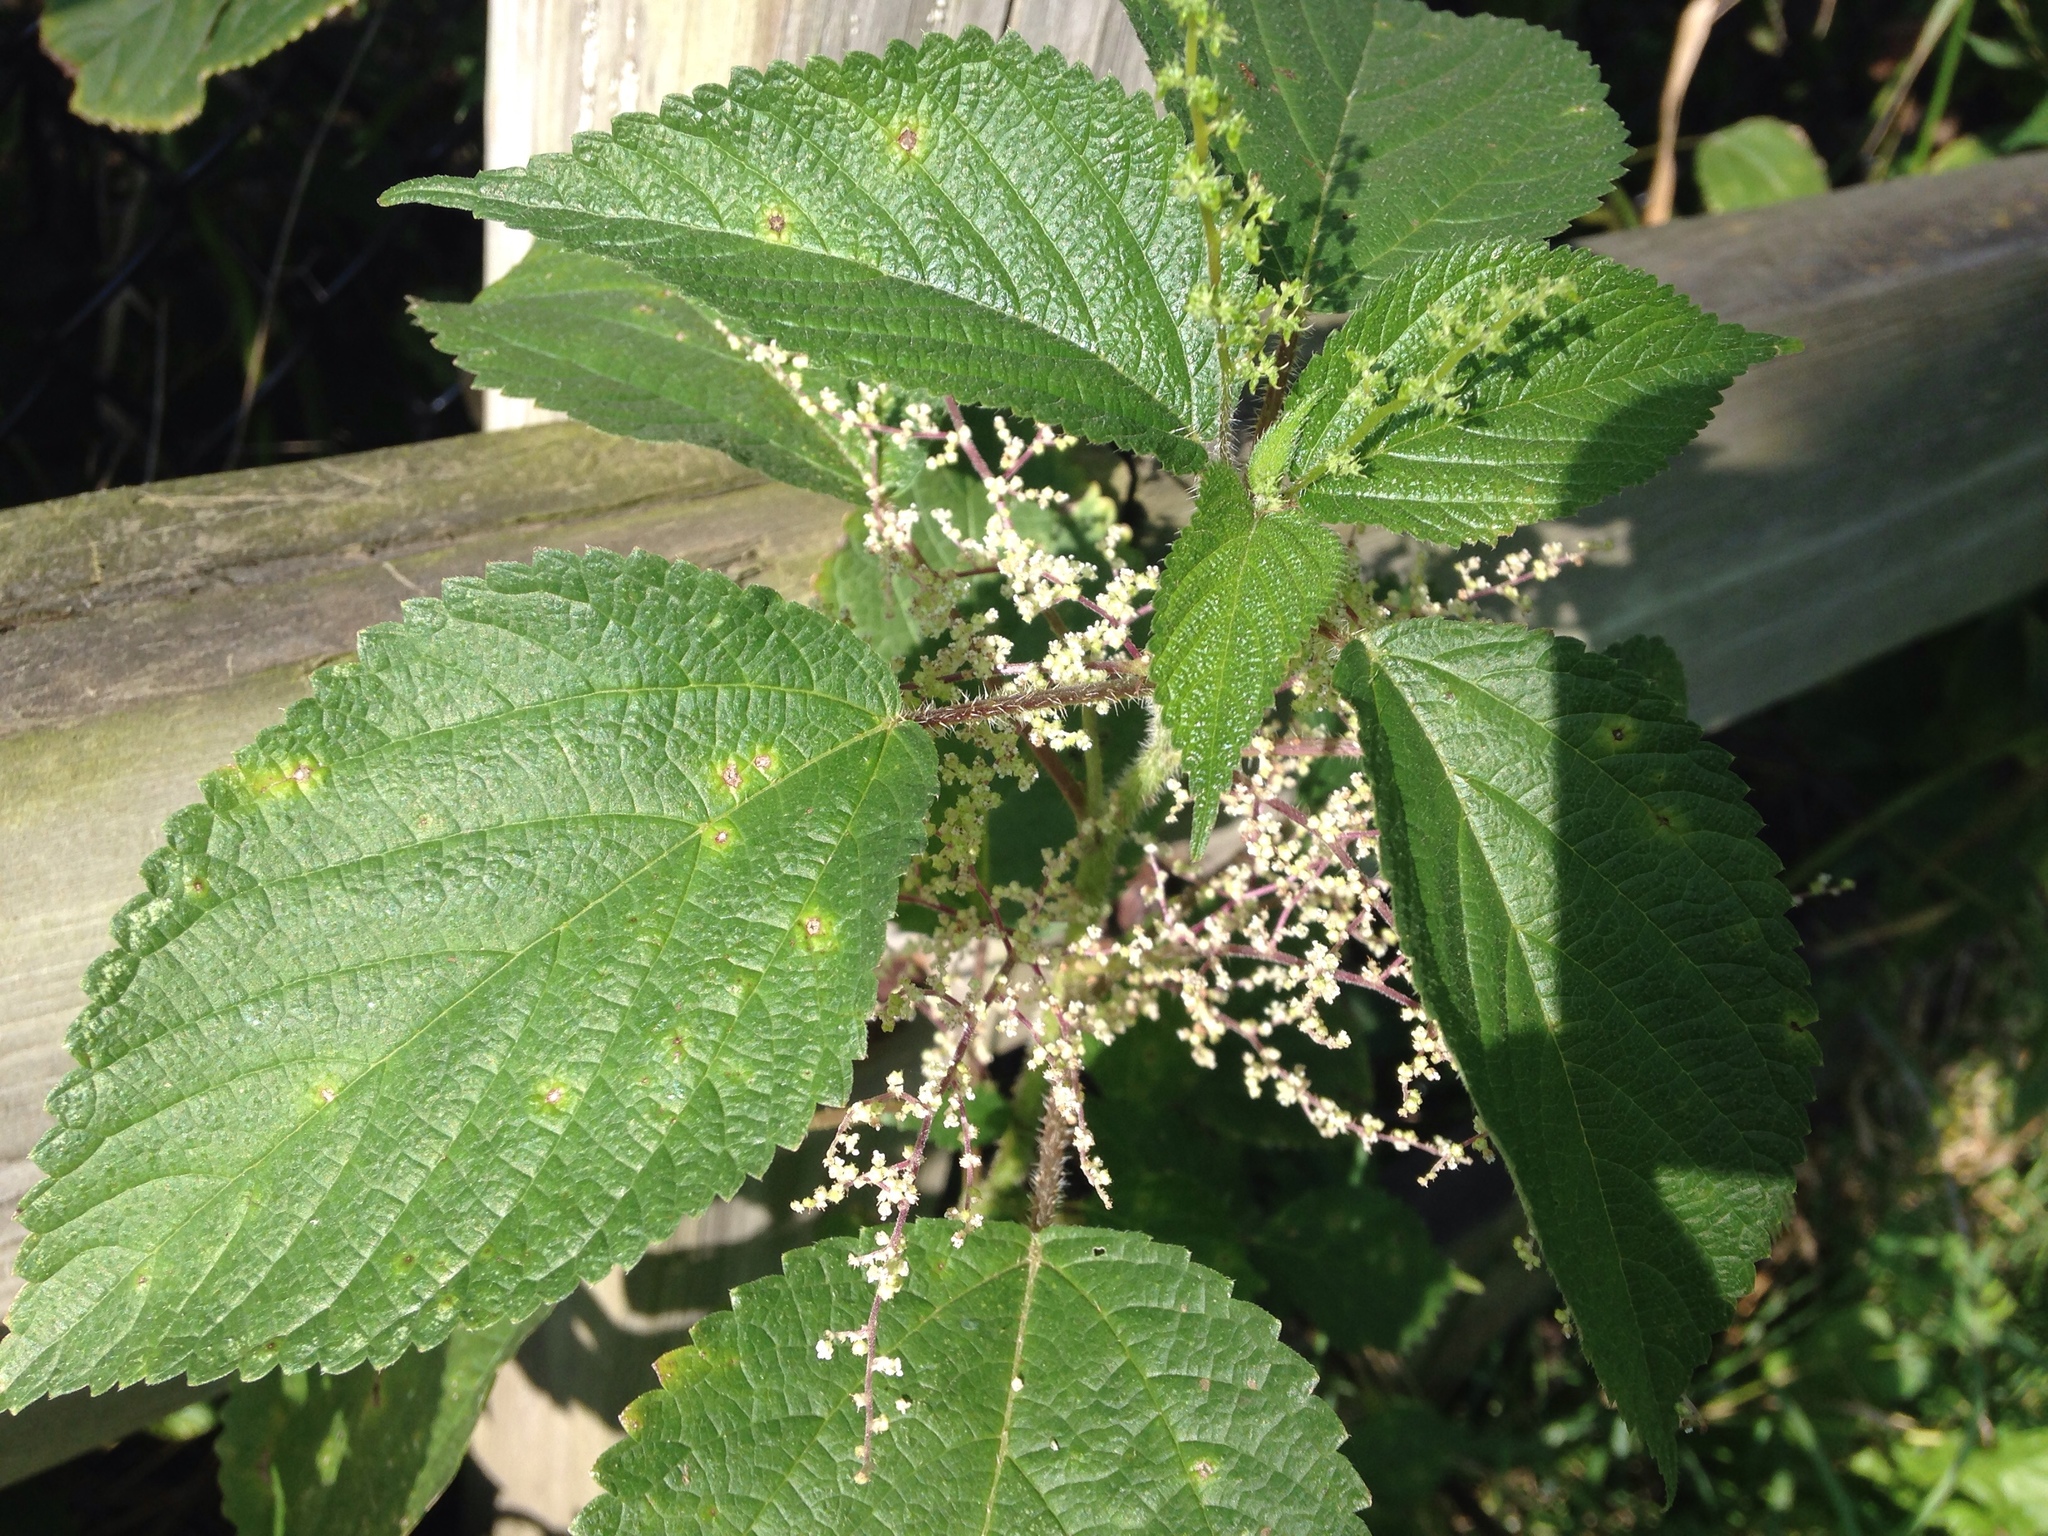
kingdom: Plantae
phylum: Tracheophyta
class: Magnoliopsida
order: Rosales
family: Urticaceae
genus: Laportea
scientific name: Laportea canadensis
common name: Canada nettle
